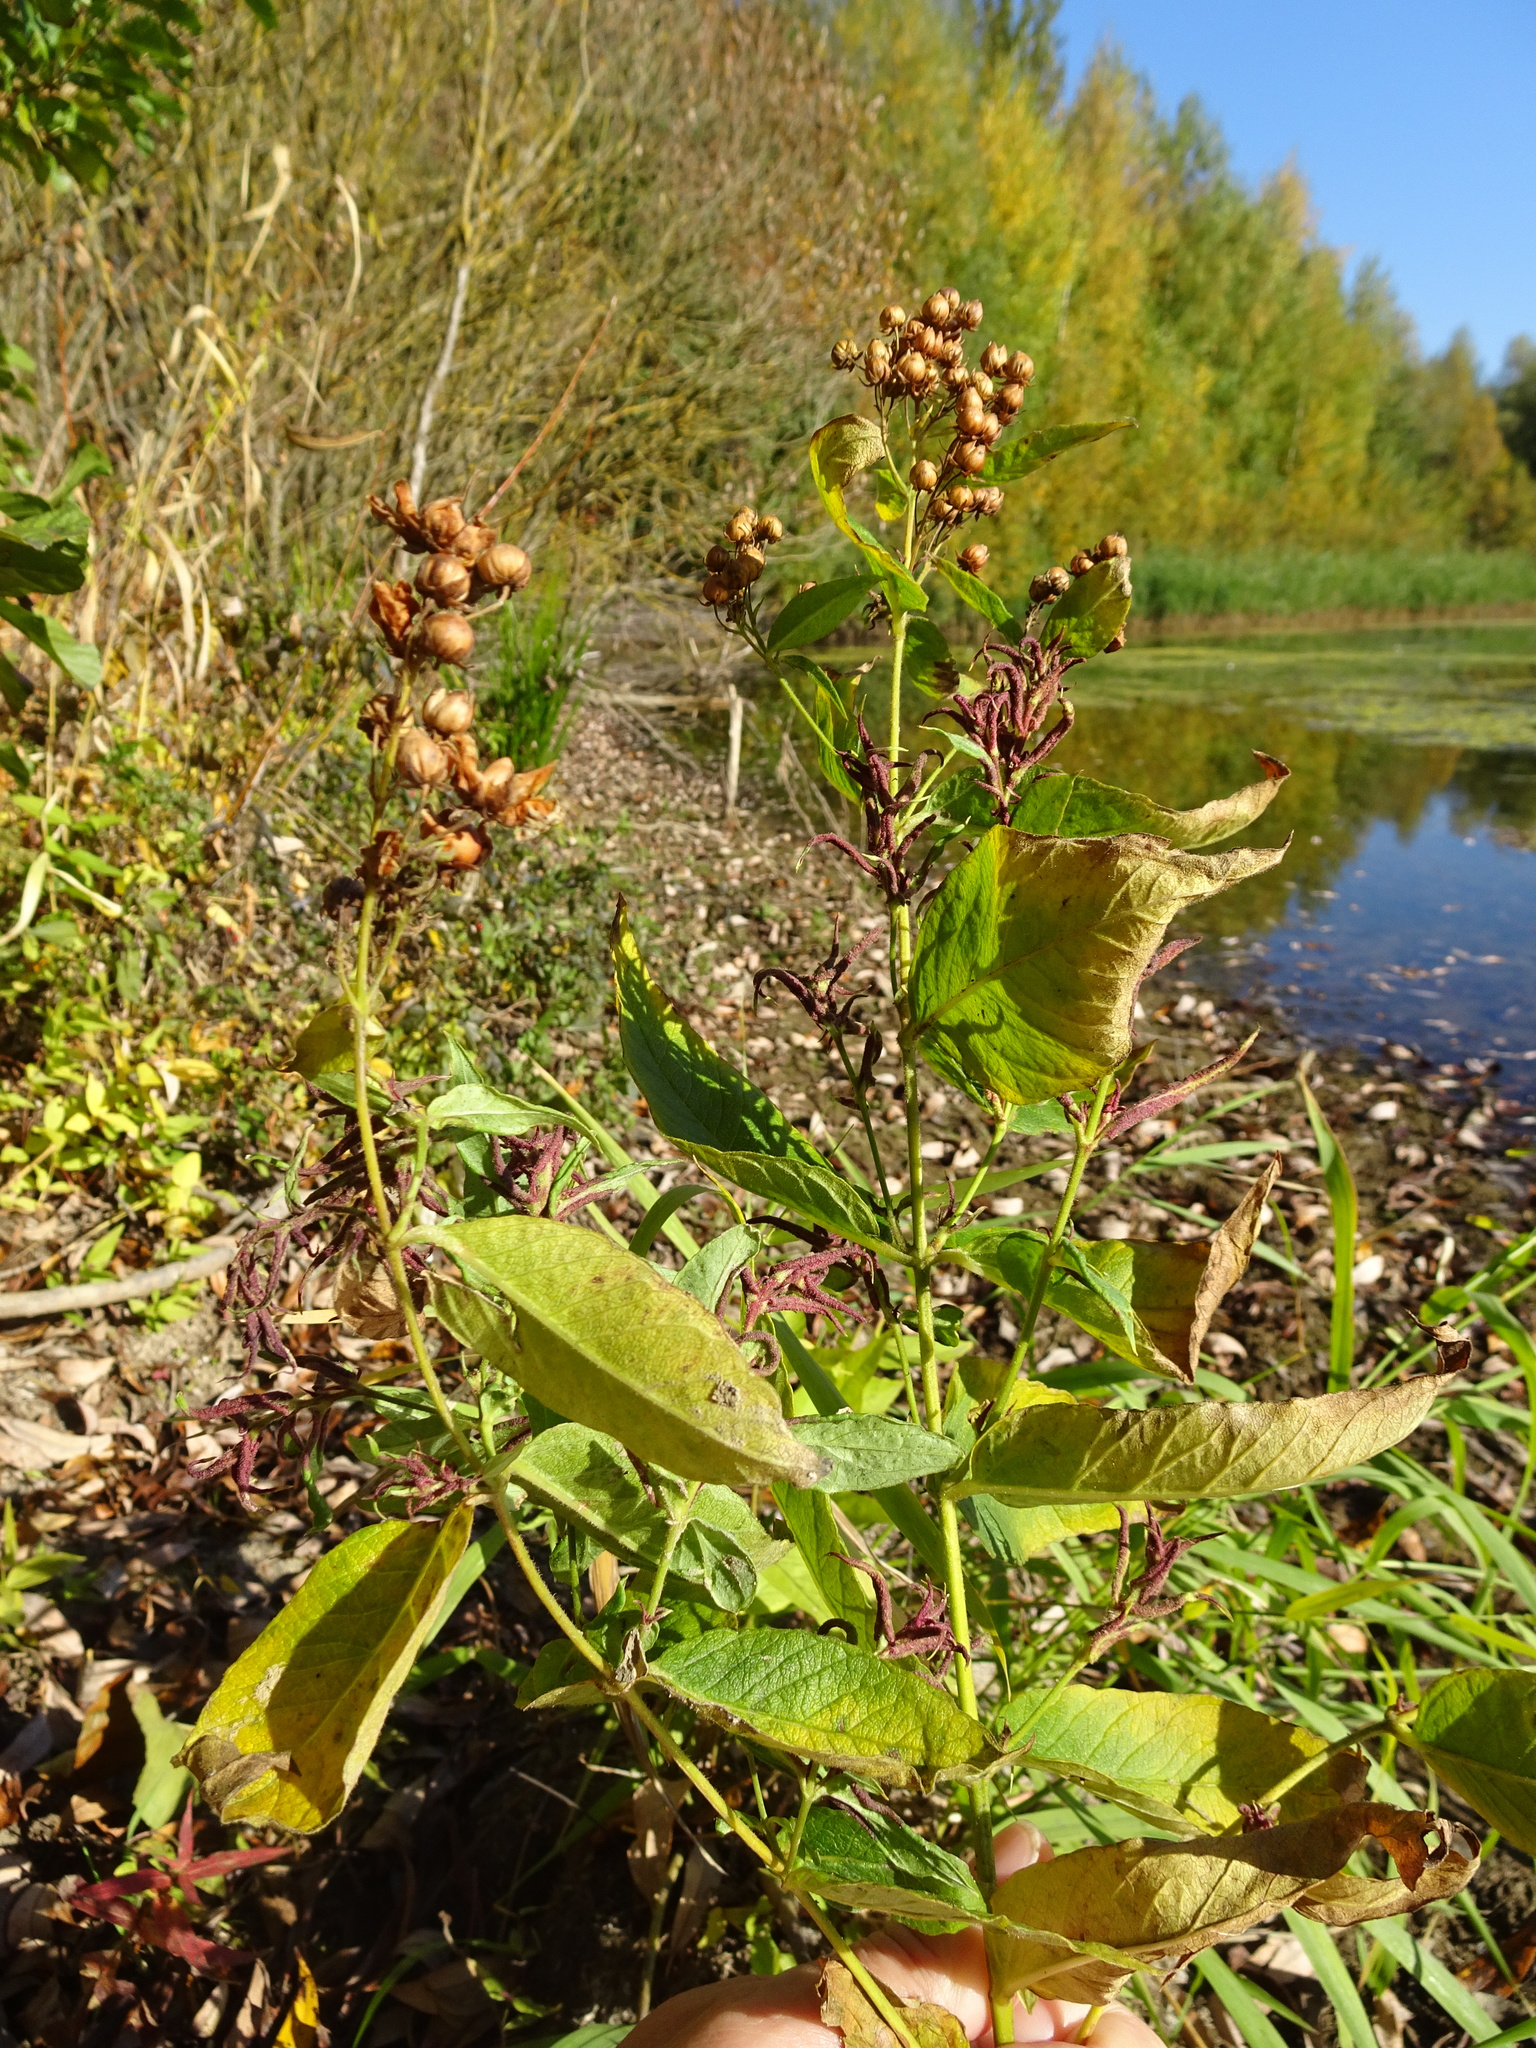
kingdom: Plantae
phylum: Tracheophyta
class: Magnoliopsida
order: Ericales
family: Primulaceae
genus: Lysimachia
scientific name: Lysimachia vulgaris
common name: Yellow loosestrife
